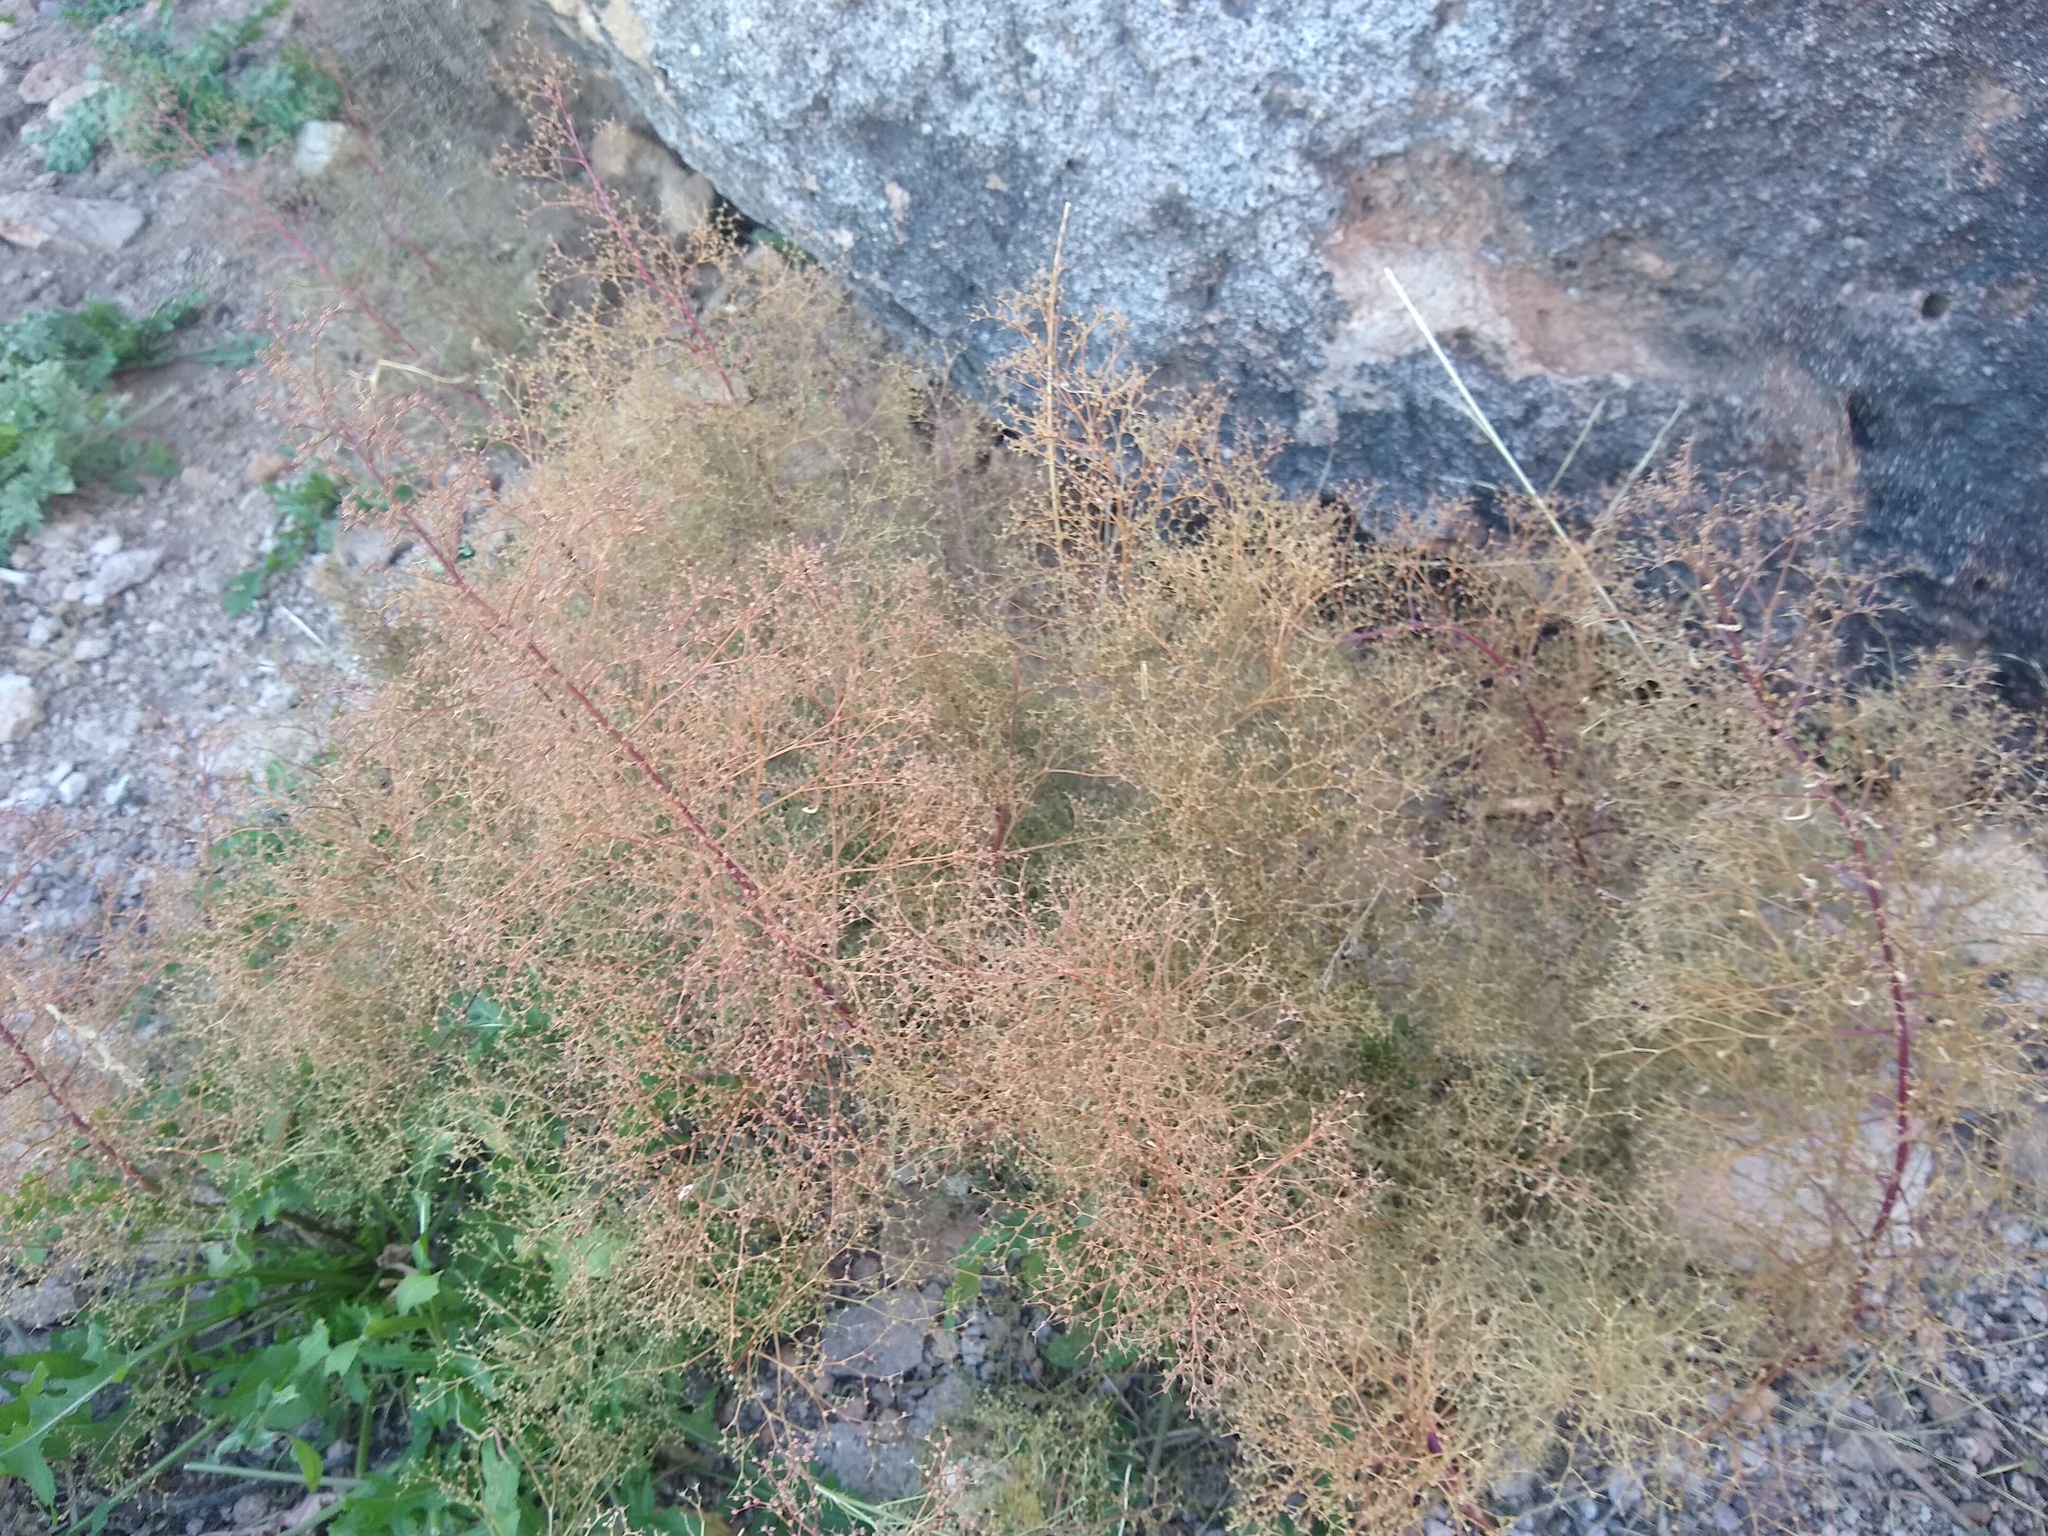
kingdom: Plantae
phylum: Tracheophyta
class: Magnoliopsida
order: Caryophyllales
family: Amaranthaceae
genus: Dysphania
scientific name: Dysphania incisa
